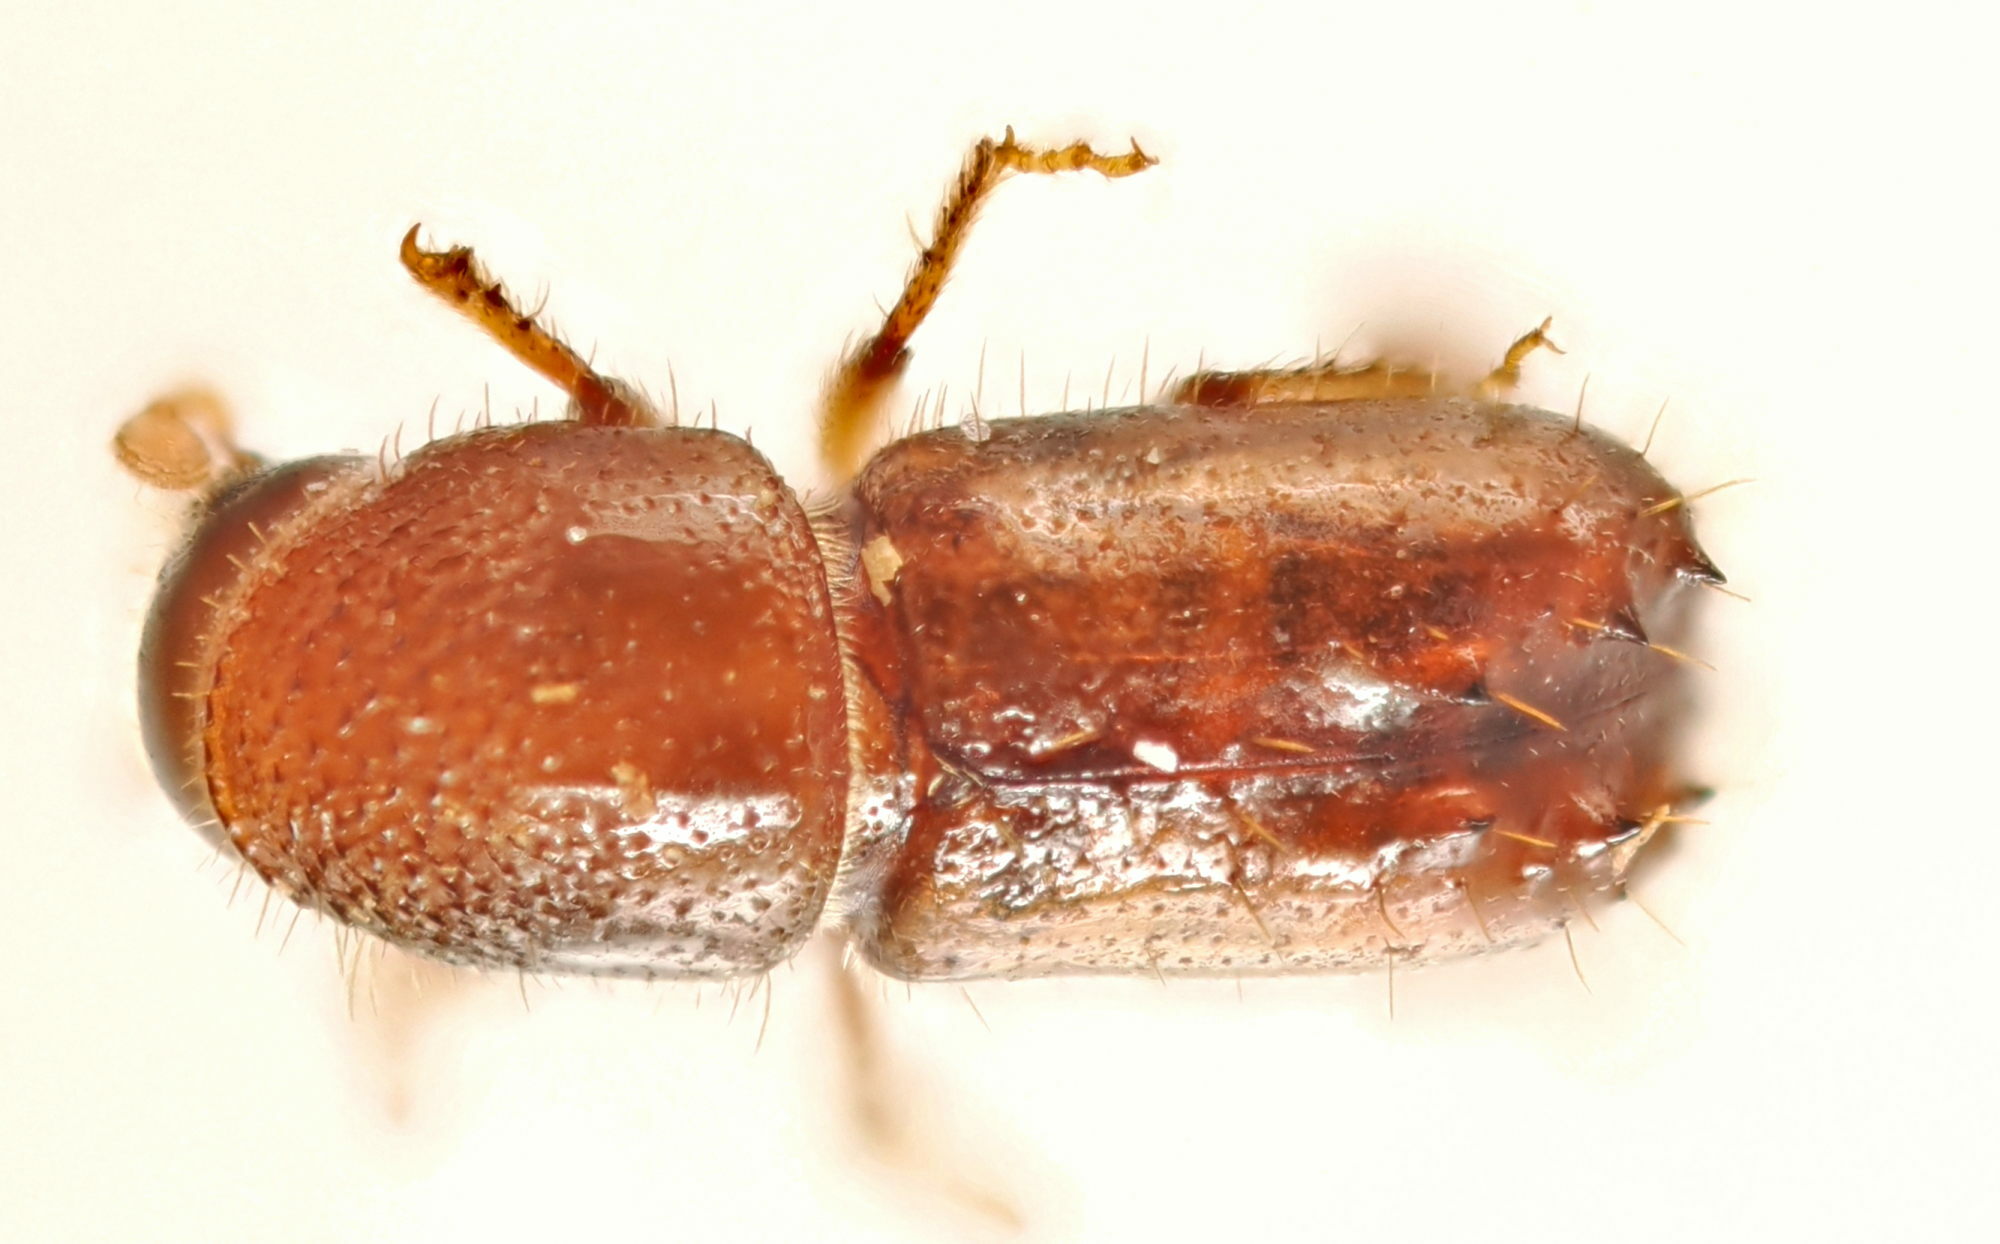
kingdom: Animalia
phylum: Arthropoda
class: Insecta
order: Coleoptera
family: Curculionidae
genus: Pityogenes
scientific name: Pityogenes chalcographus
